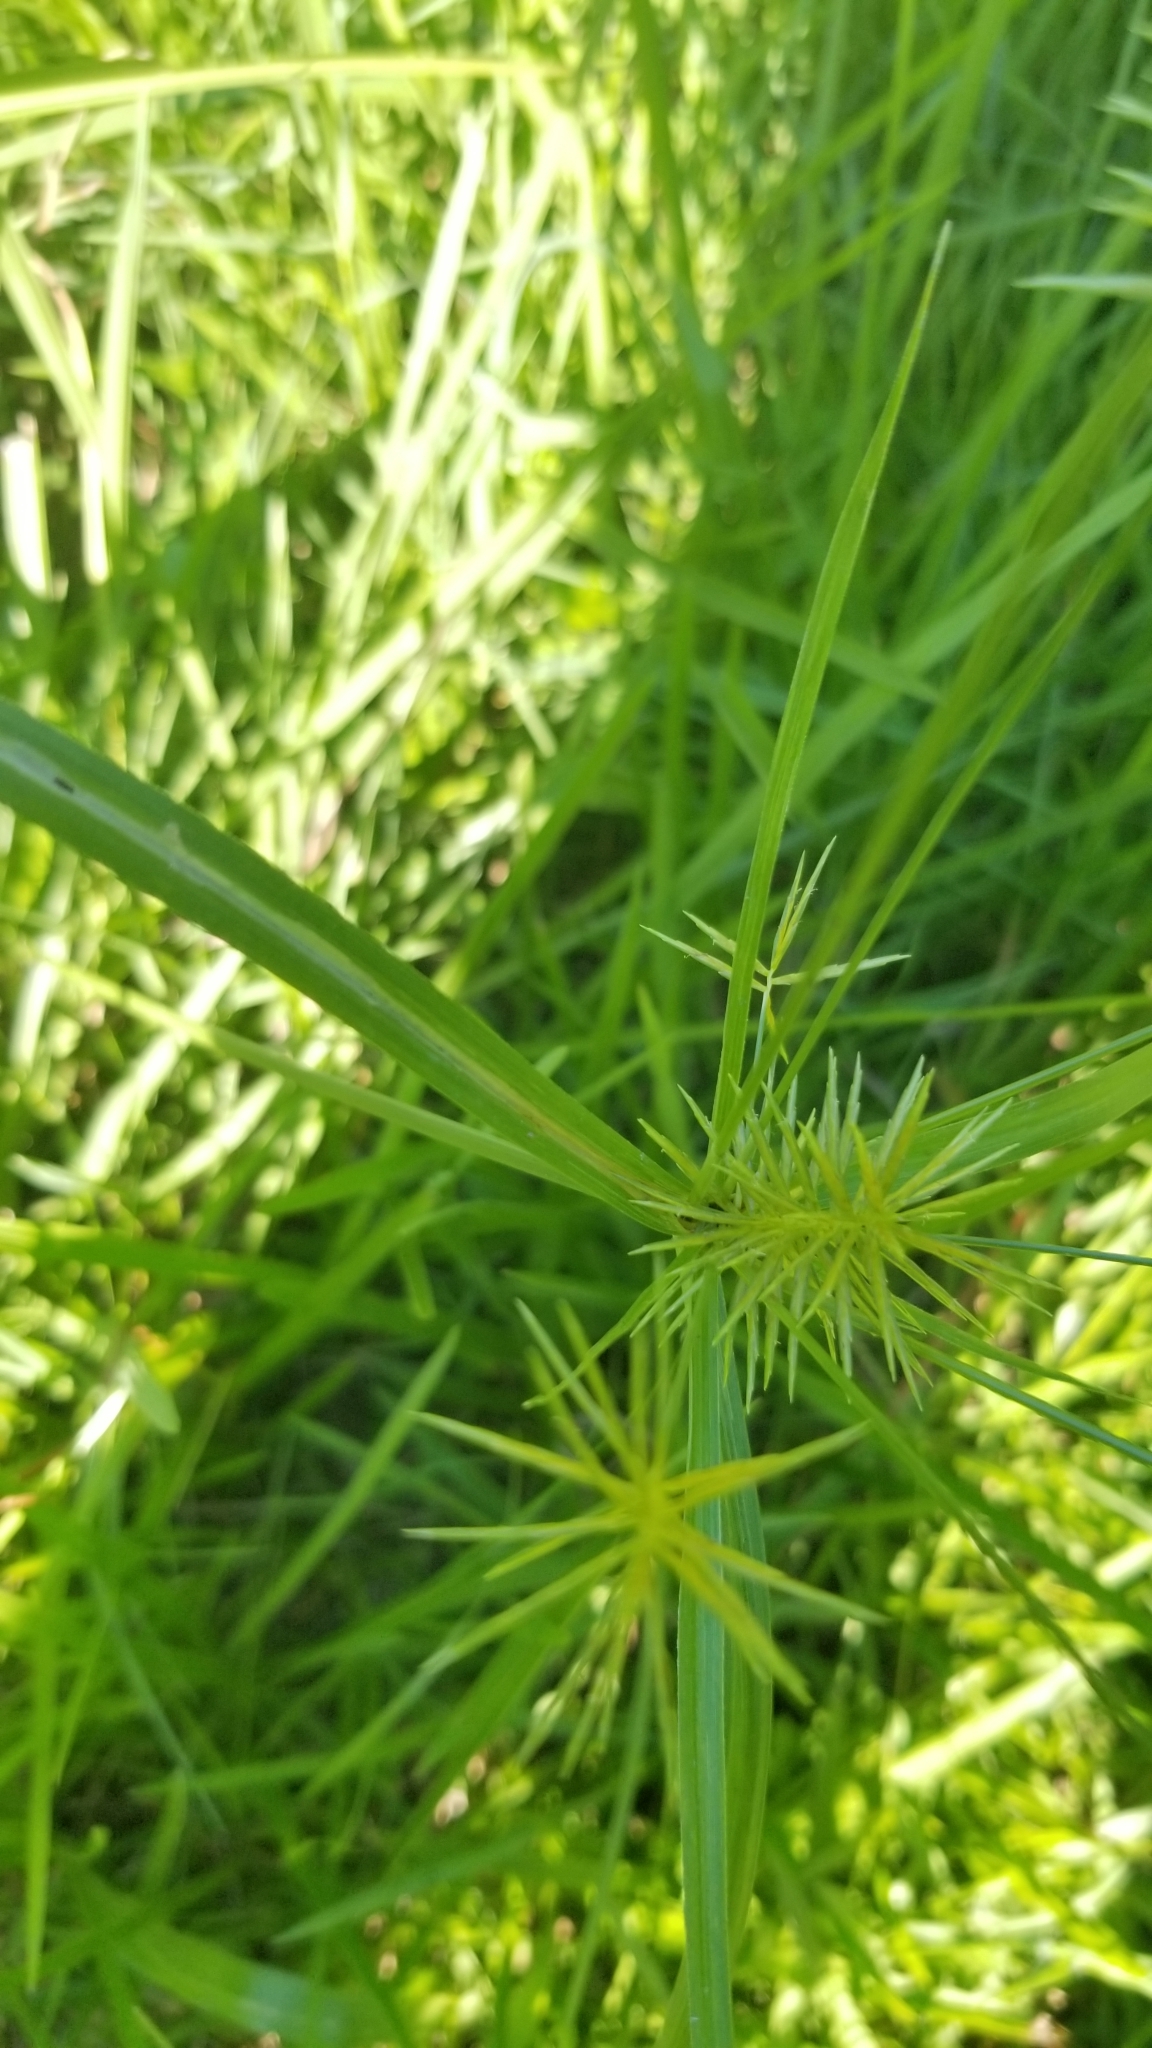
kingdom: Plantae
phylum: Tracheophyta
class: Liliopsida
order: Poales
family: Cyperaceae
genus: Cyperus
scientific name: Cyperus strigosus
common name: False nutsedge
